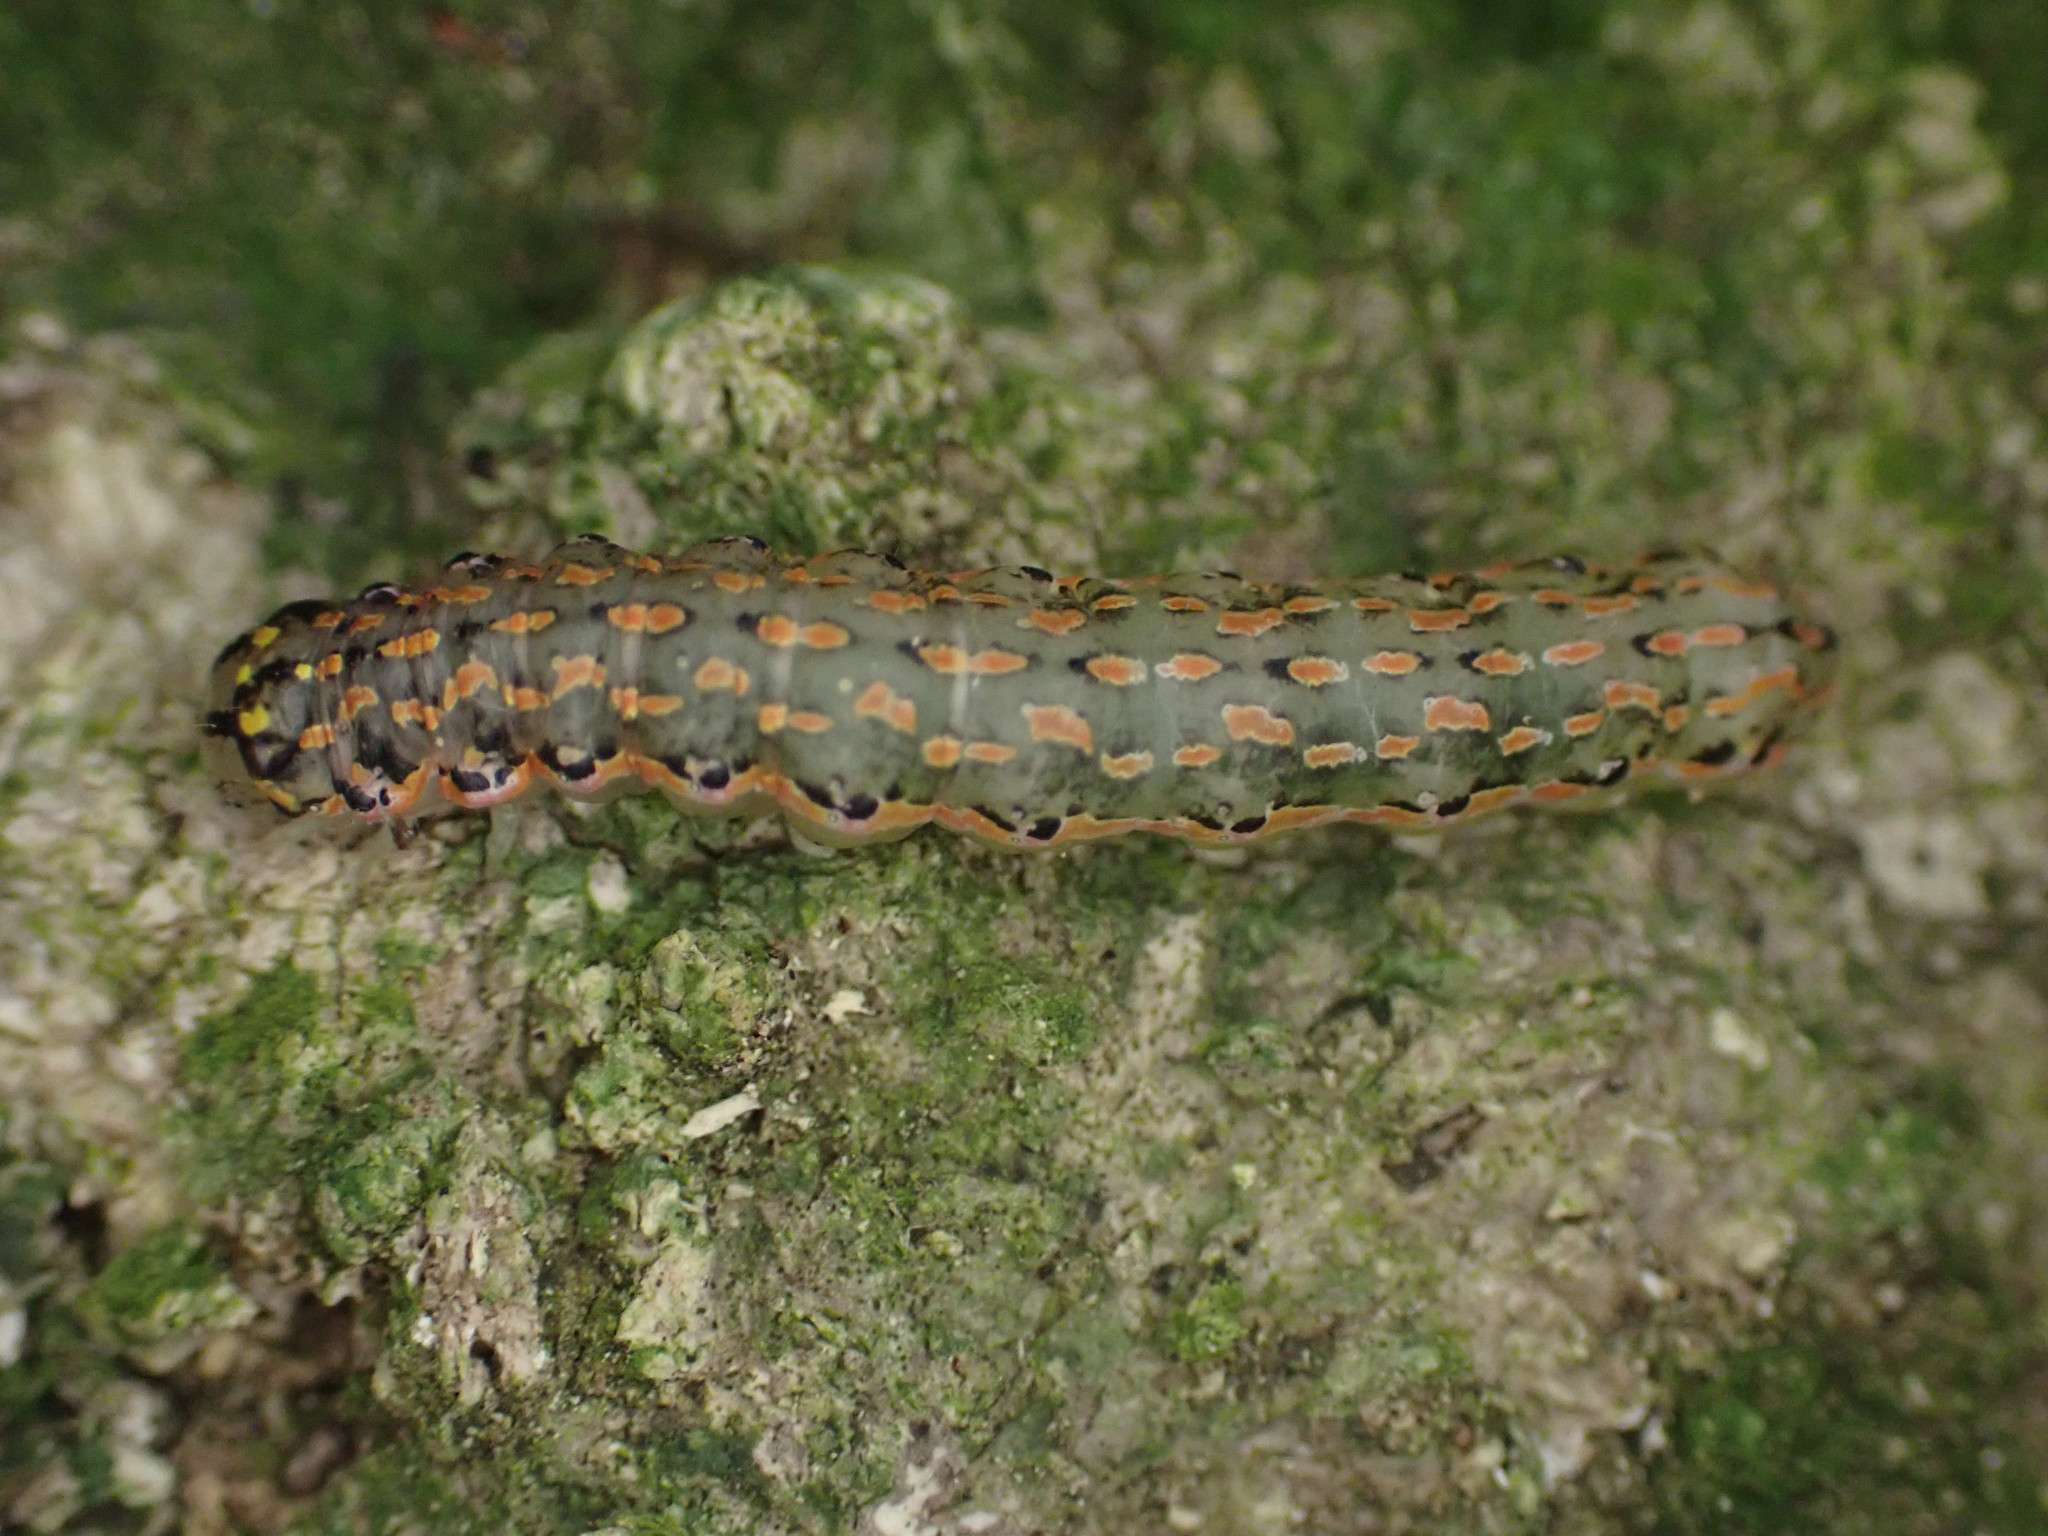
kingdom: Animalia
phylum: Arthropoda
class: Insecta
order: Lepidoptera
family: Noctuidae
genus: Austramathes
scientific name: Austramathes purpurea
